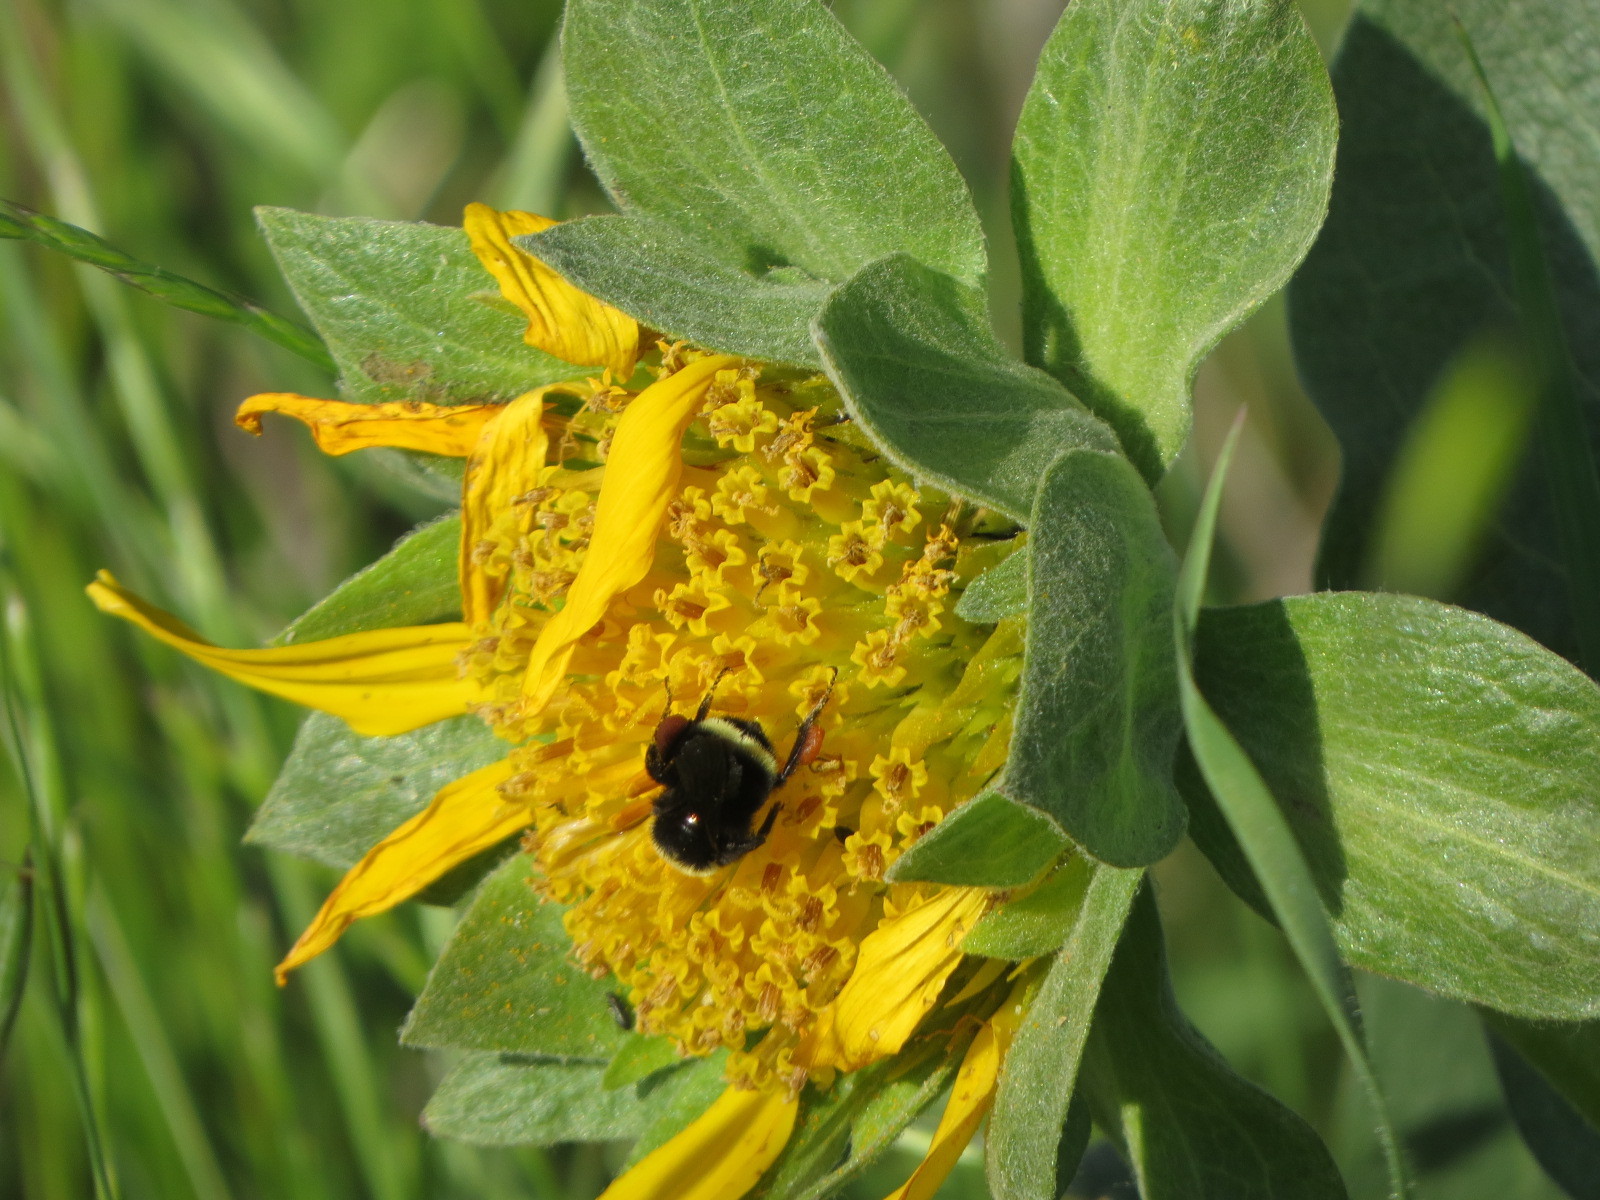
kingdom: Animalia
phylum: Arthropoda
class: Insecta
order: Hymenoptera
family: Apidae
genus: Pyrobombus
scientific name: Pyrobombus
